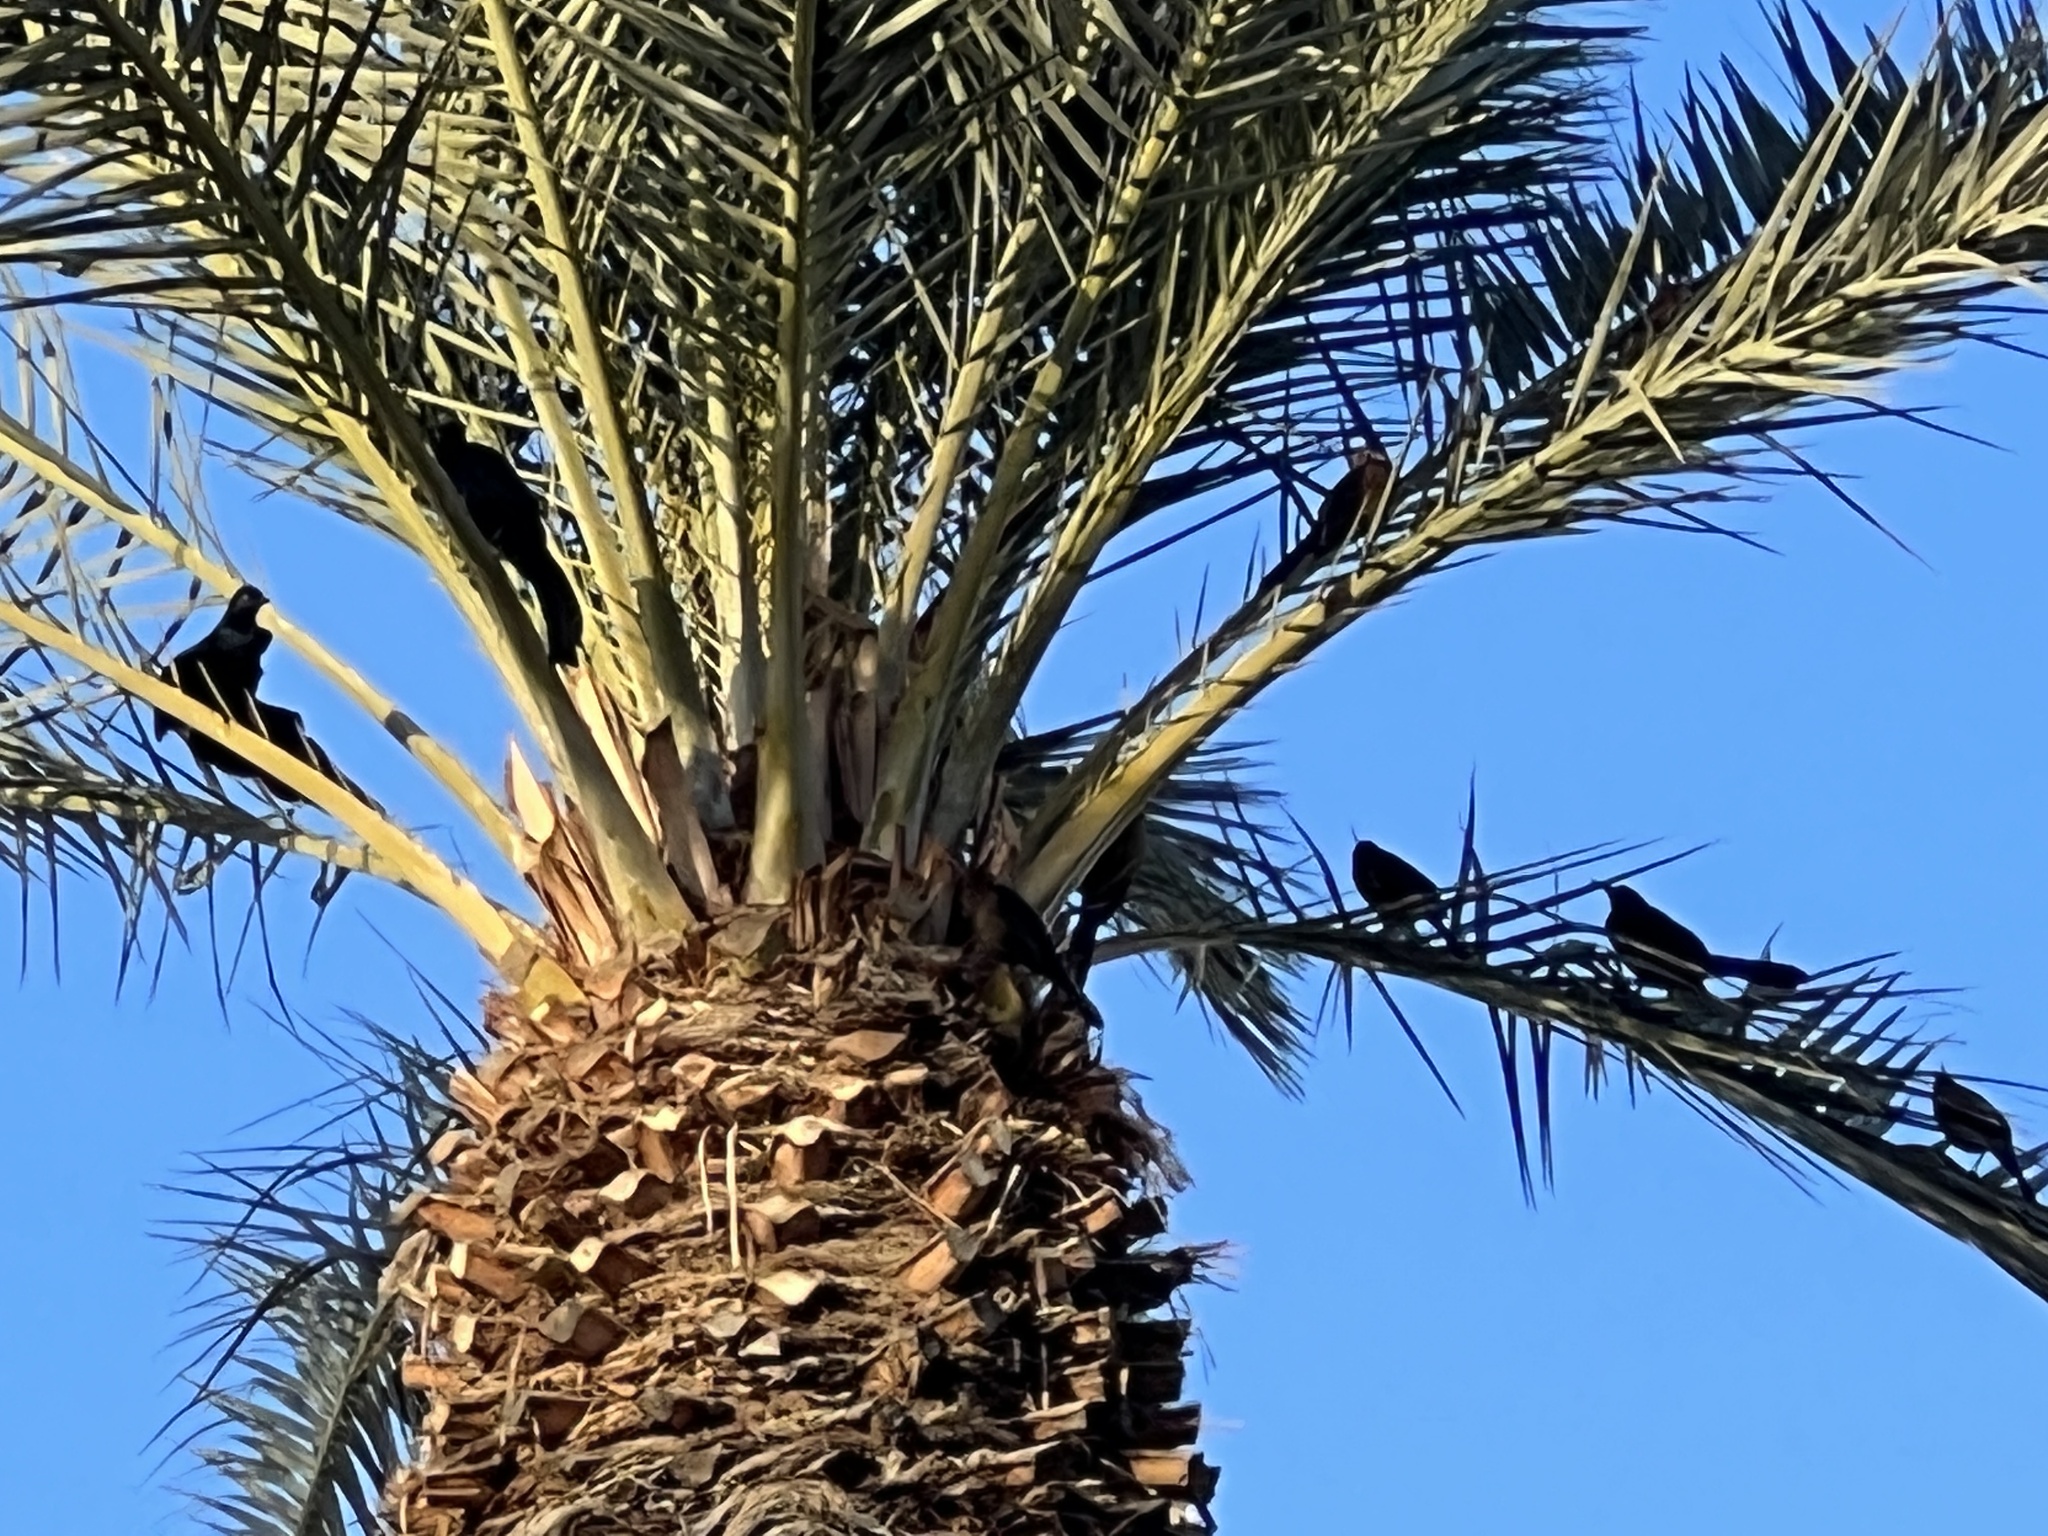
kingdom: Animalia
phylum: Chordata
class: Aves
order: Passeriformes
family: Icteridae
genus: Quiscalus
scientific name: Quiscalus mexicanus
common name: Great-tailed grackle
